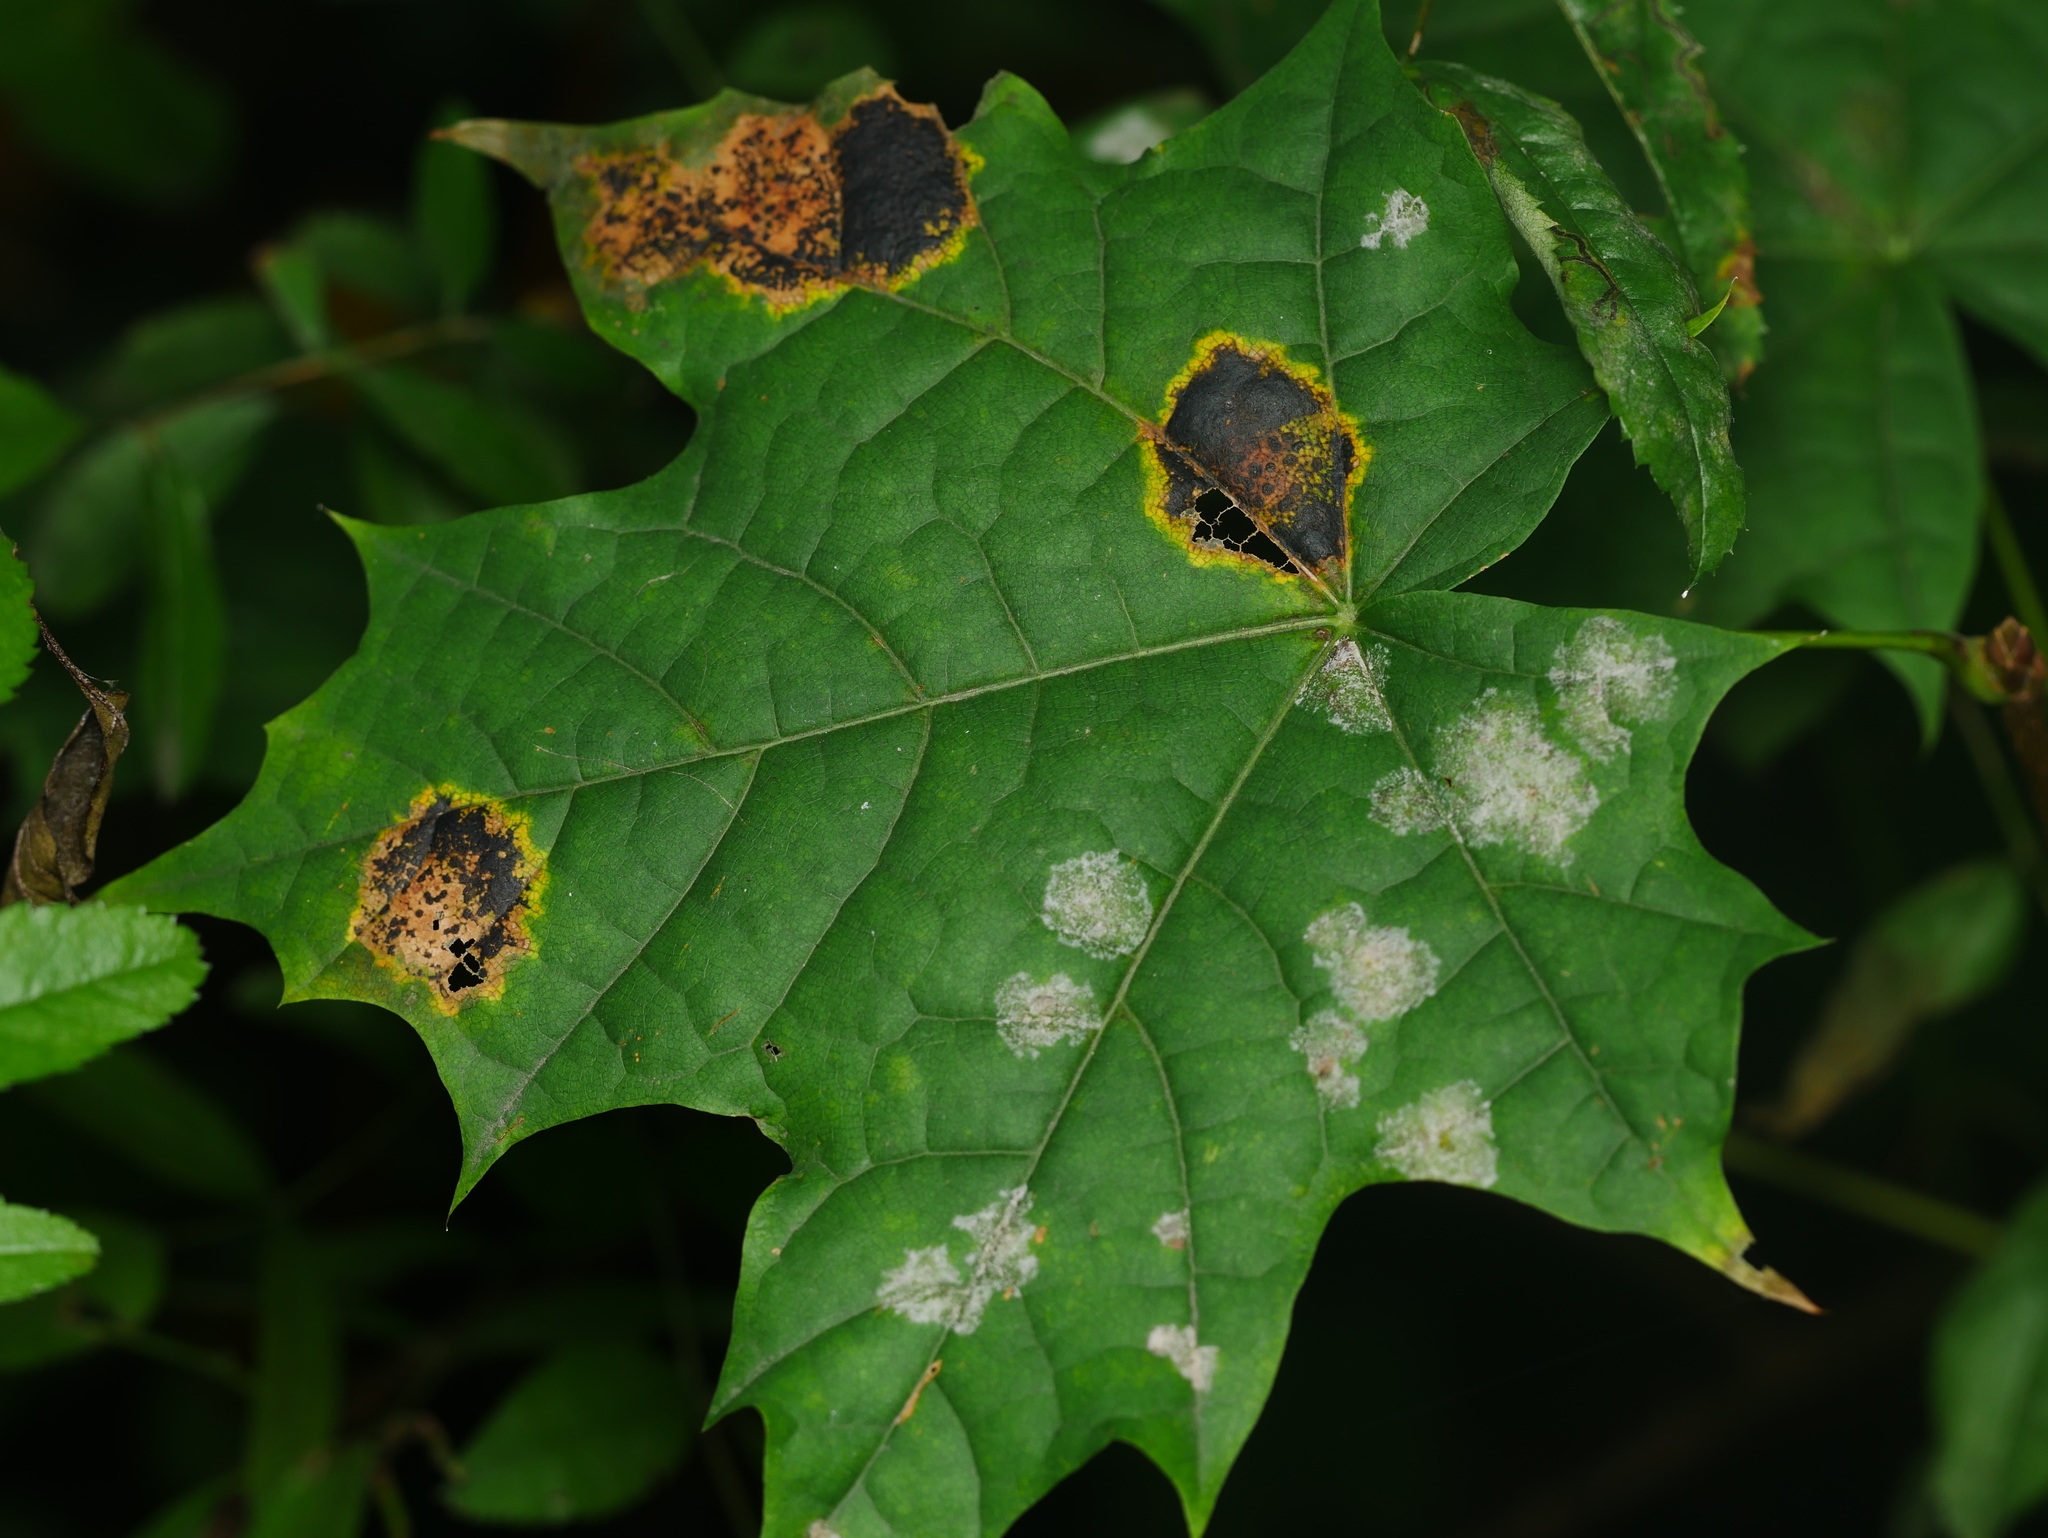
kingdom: Plantae
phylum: Tracheophyta
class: Magnoliopsida
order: Sapindales
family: Sapindaceae
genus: Acer
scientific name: Acer platanoides
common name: Norway maple
